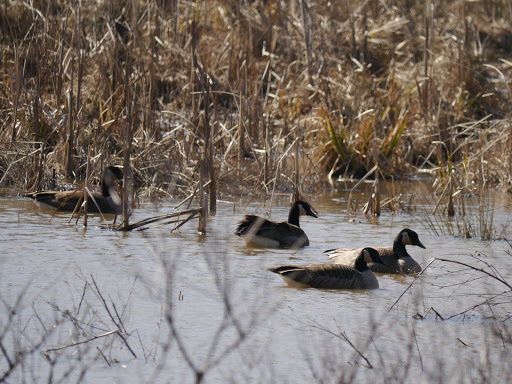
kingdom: Animalia
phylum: Chordata
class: Aves
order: Anseriformes
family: Anatidae
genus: Branta
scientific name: Branta canadensis
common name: Canada goose
